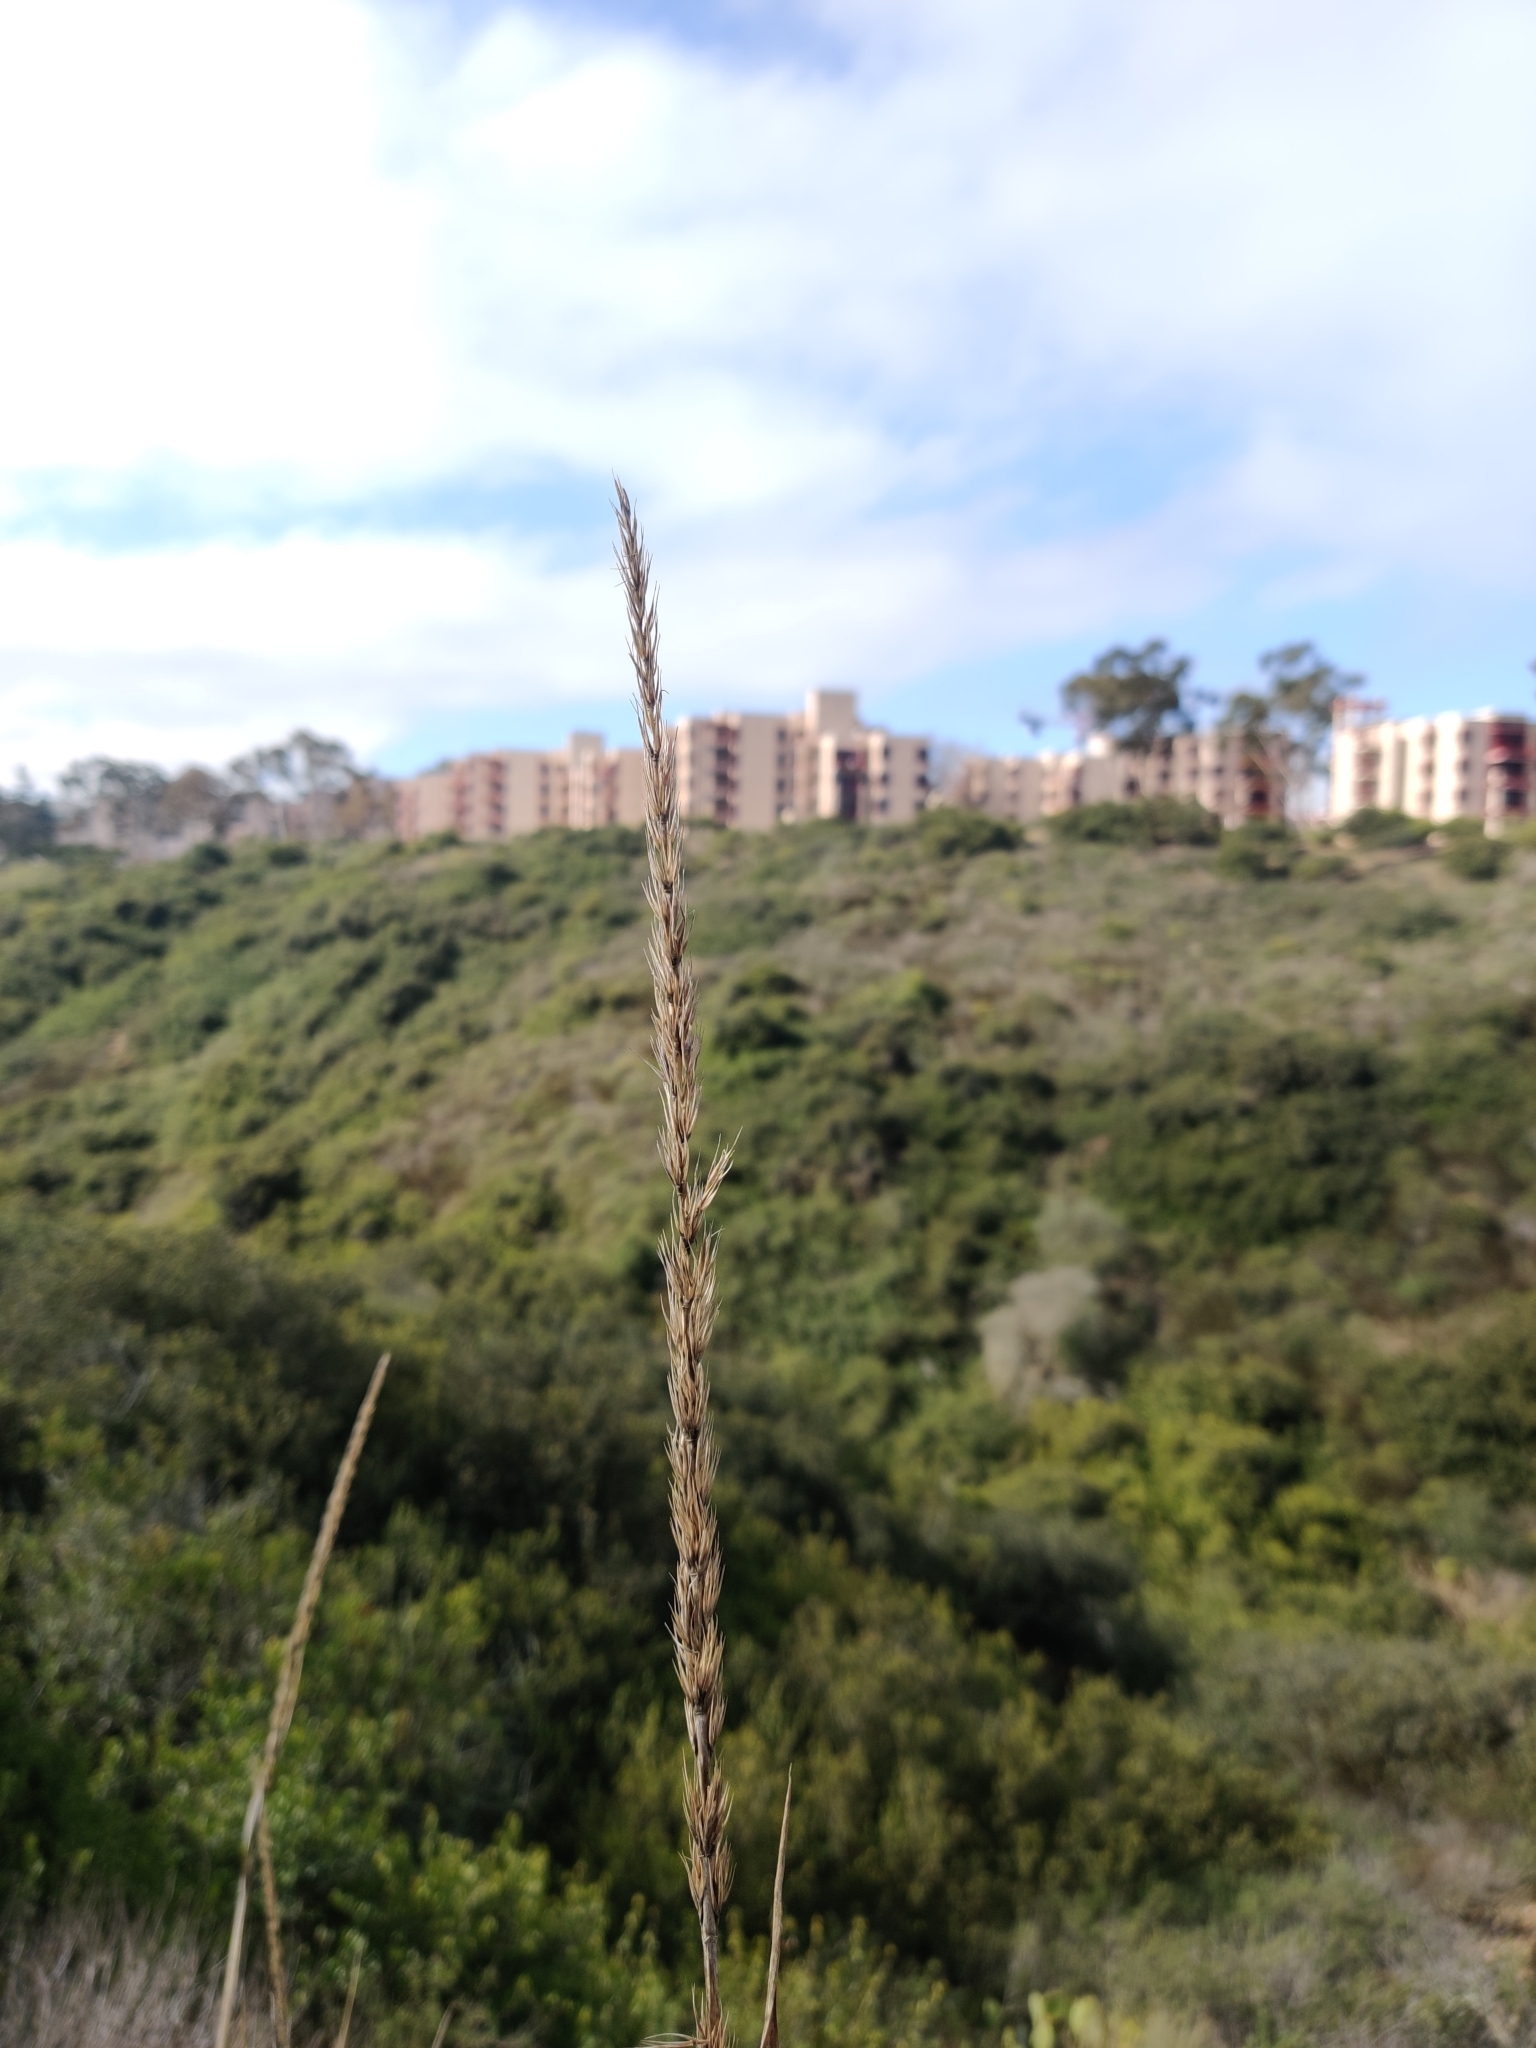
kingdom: Plantae
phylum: Tracheophyta
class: Liliopsida
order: Poales
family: Poaceae
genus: Leymus
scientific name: Leymus condensatus
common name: Giant wild rye
